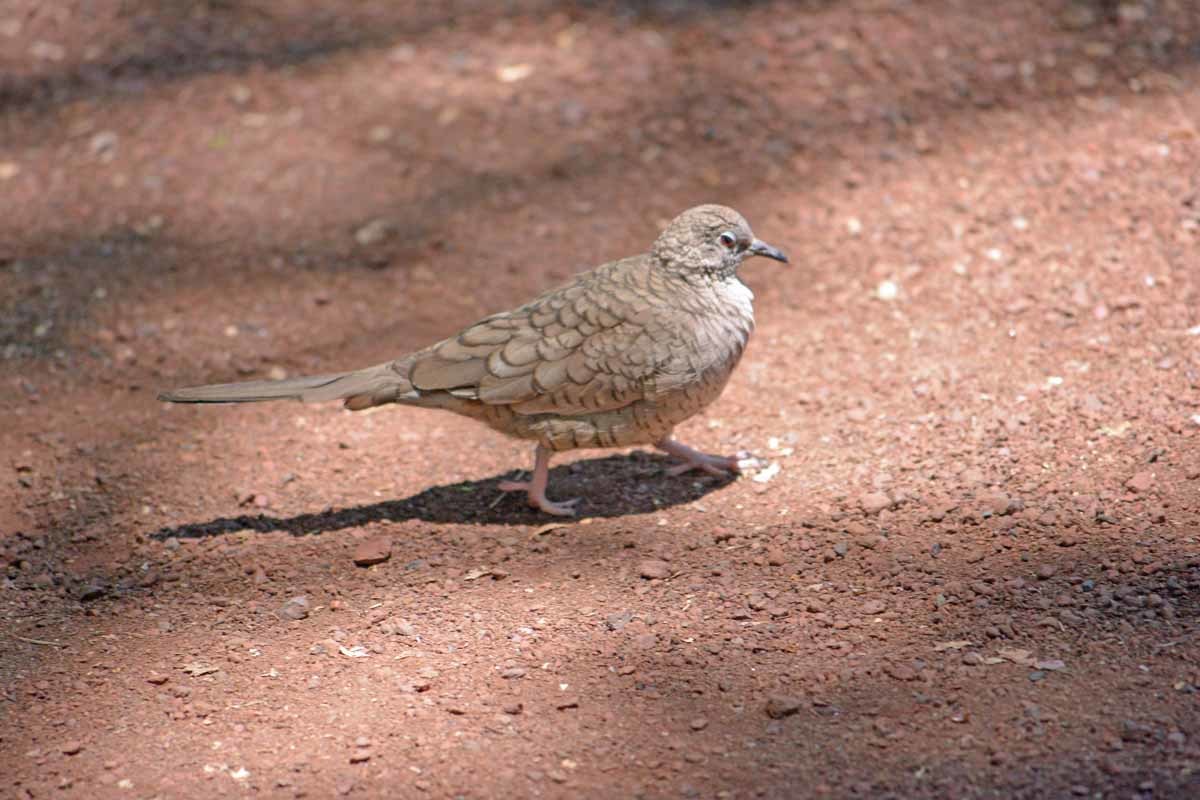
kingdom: Animalia
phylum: Chordata
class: Aves
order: Columbiformes
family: Columbidae
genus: Columbina
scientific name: Columbina inca
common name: Inca dove
